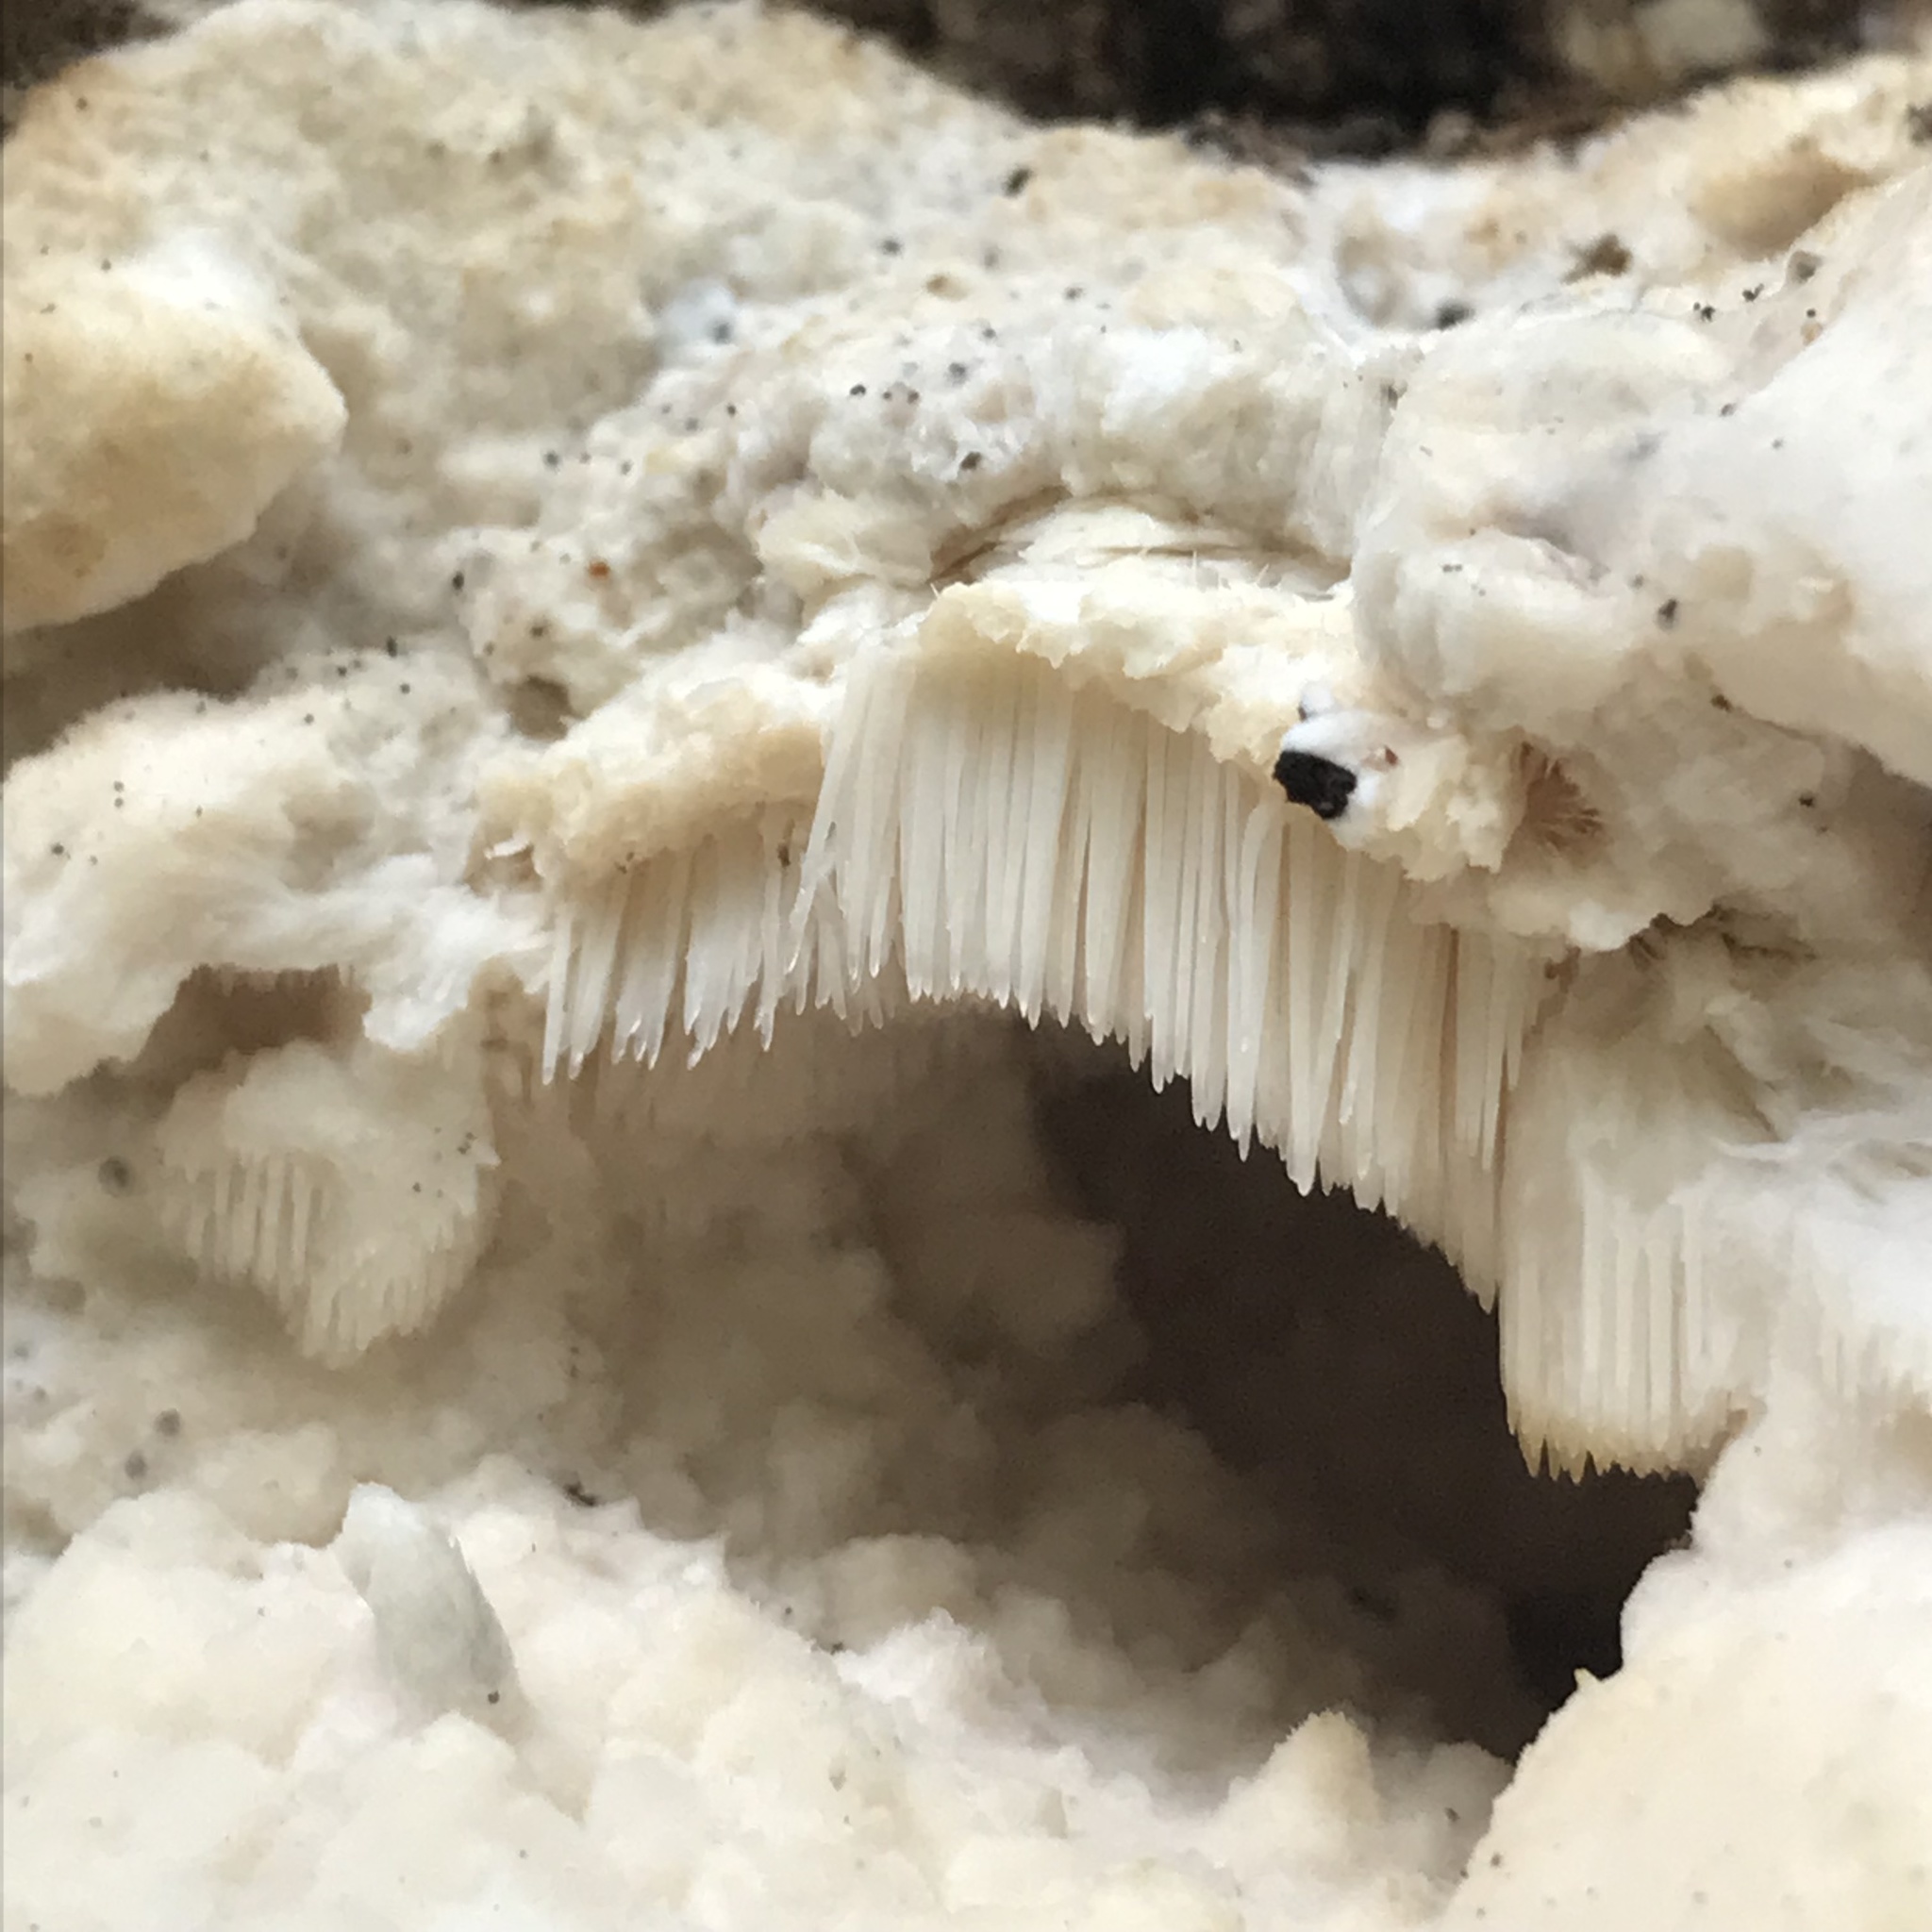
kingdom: Fungi
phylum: Basidiomycota
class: Agaricomycetes
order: Polyporales
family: Meruliaceae
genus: Climacodon
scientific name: Climacodon septentrionalis
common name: Northern tooth
